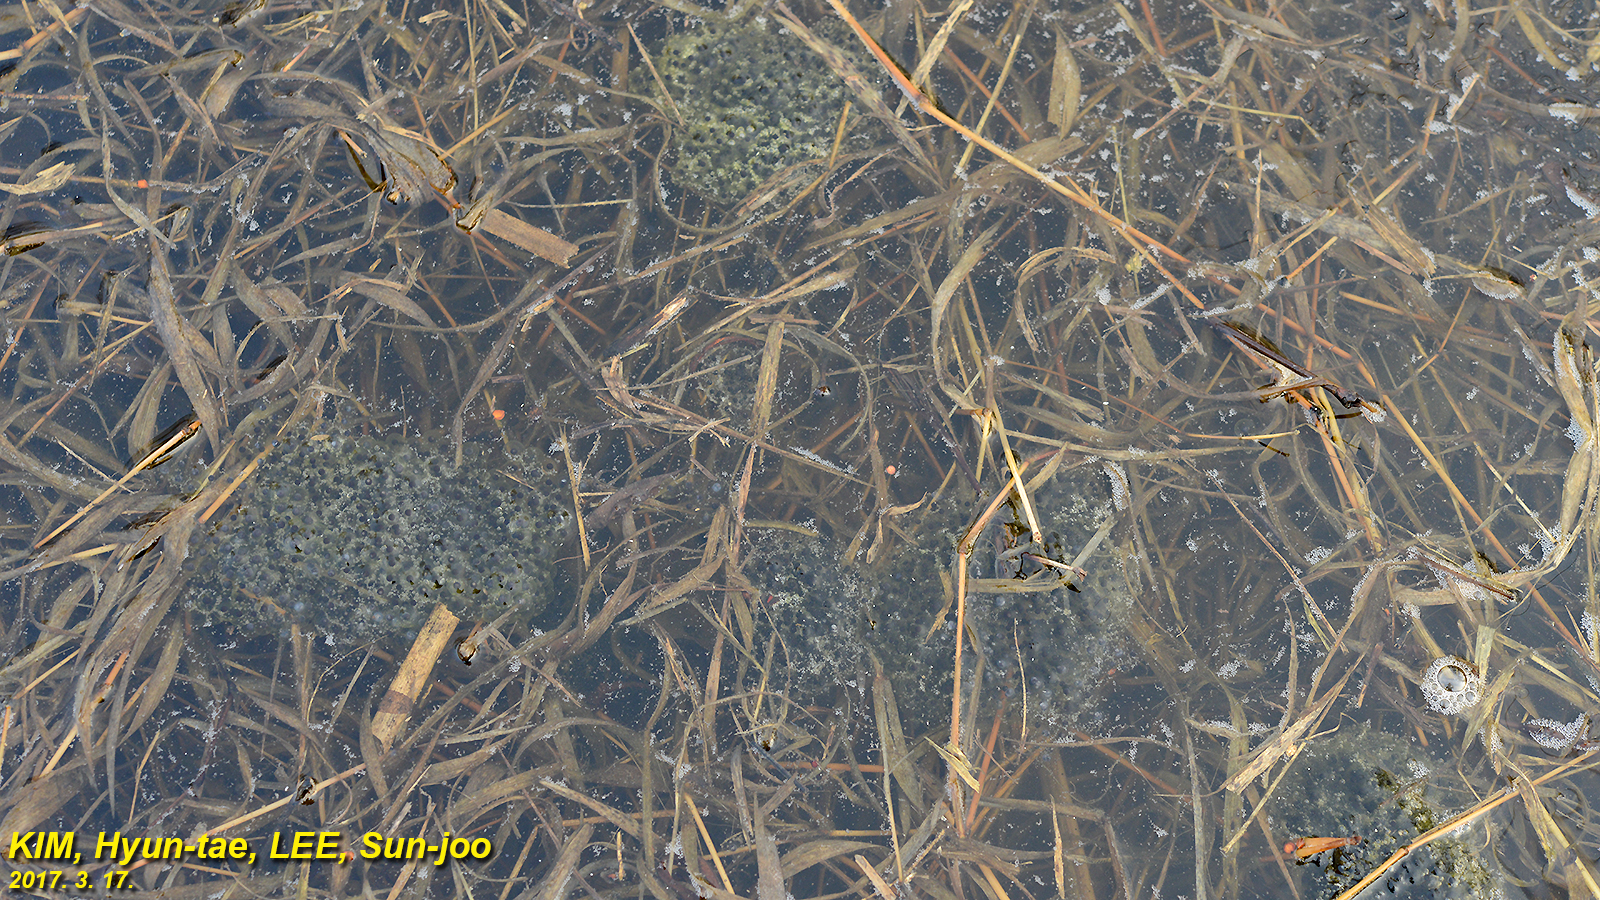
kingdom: Animalia
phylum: Chordata
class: Amphibia
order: Anura
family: Ranidae
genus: Rana
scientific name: Rana coreana
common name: Korean brown frog
